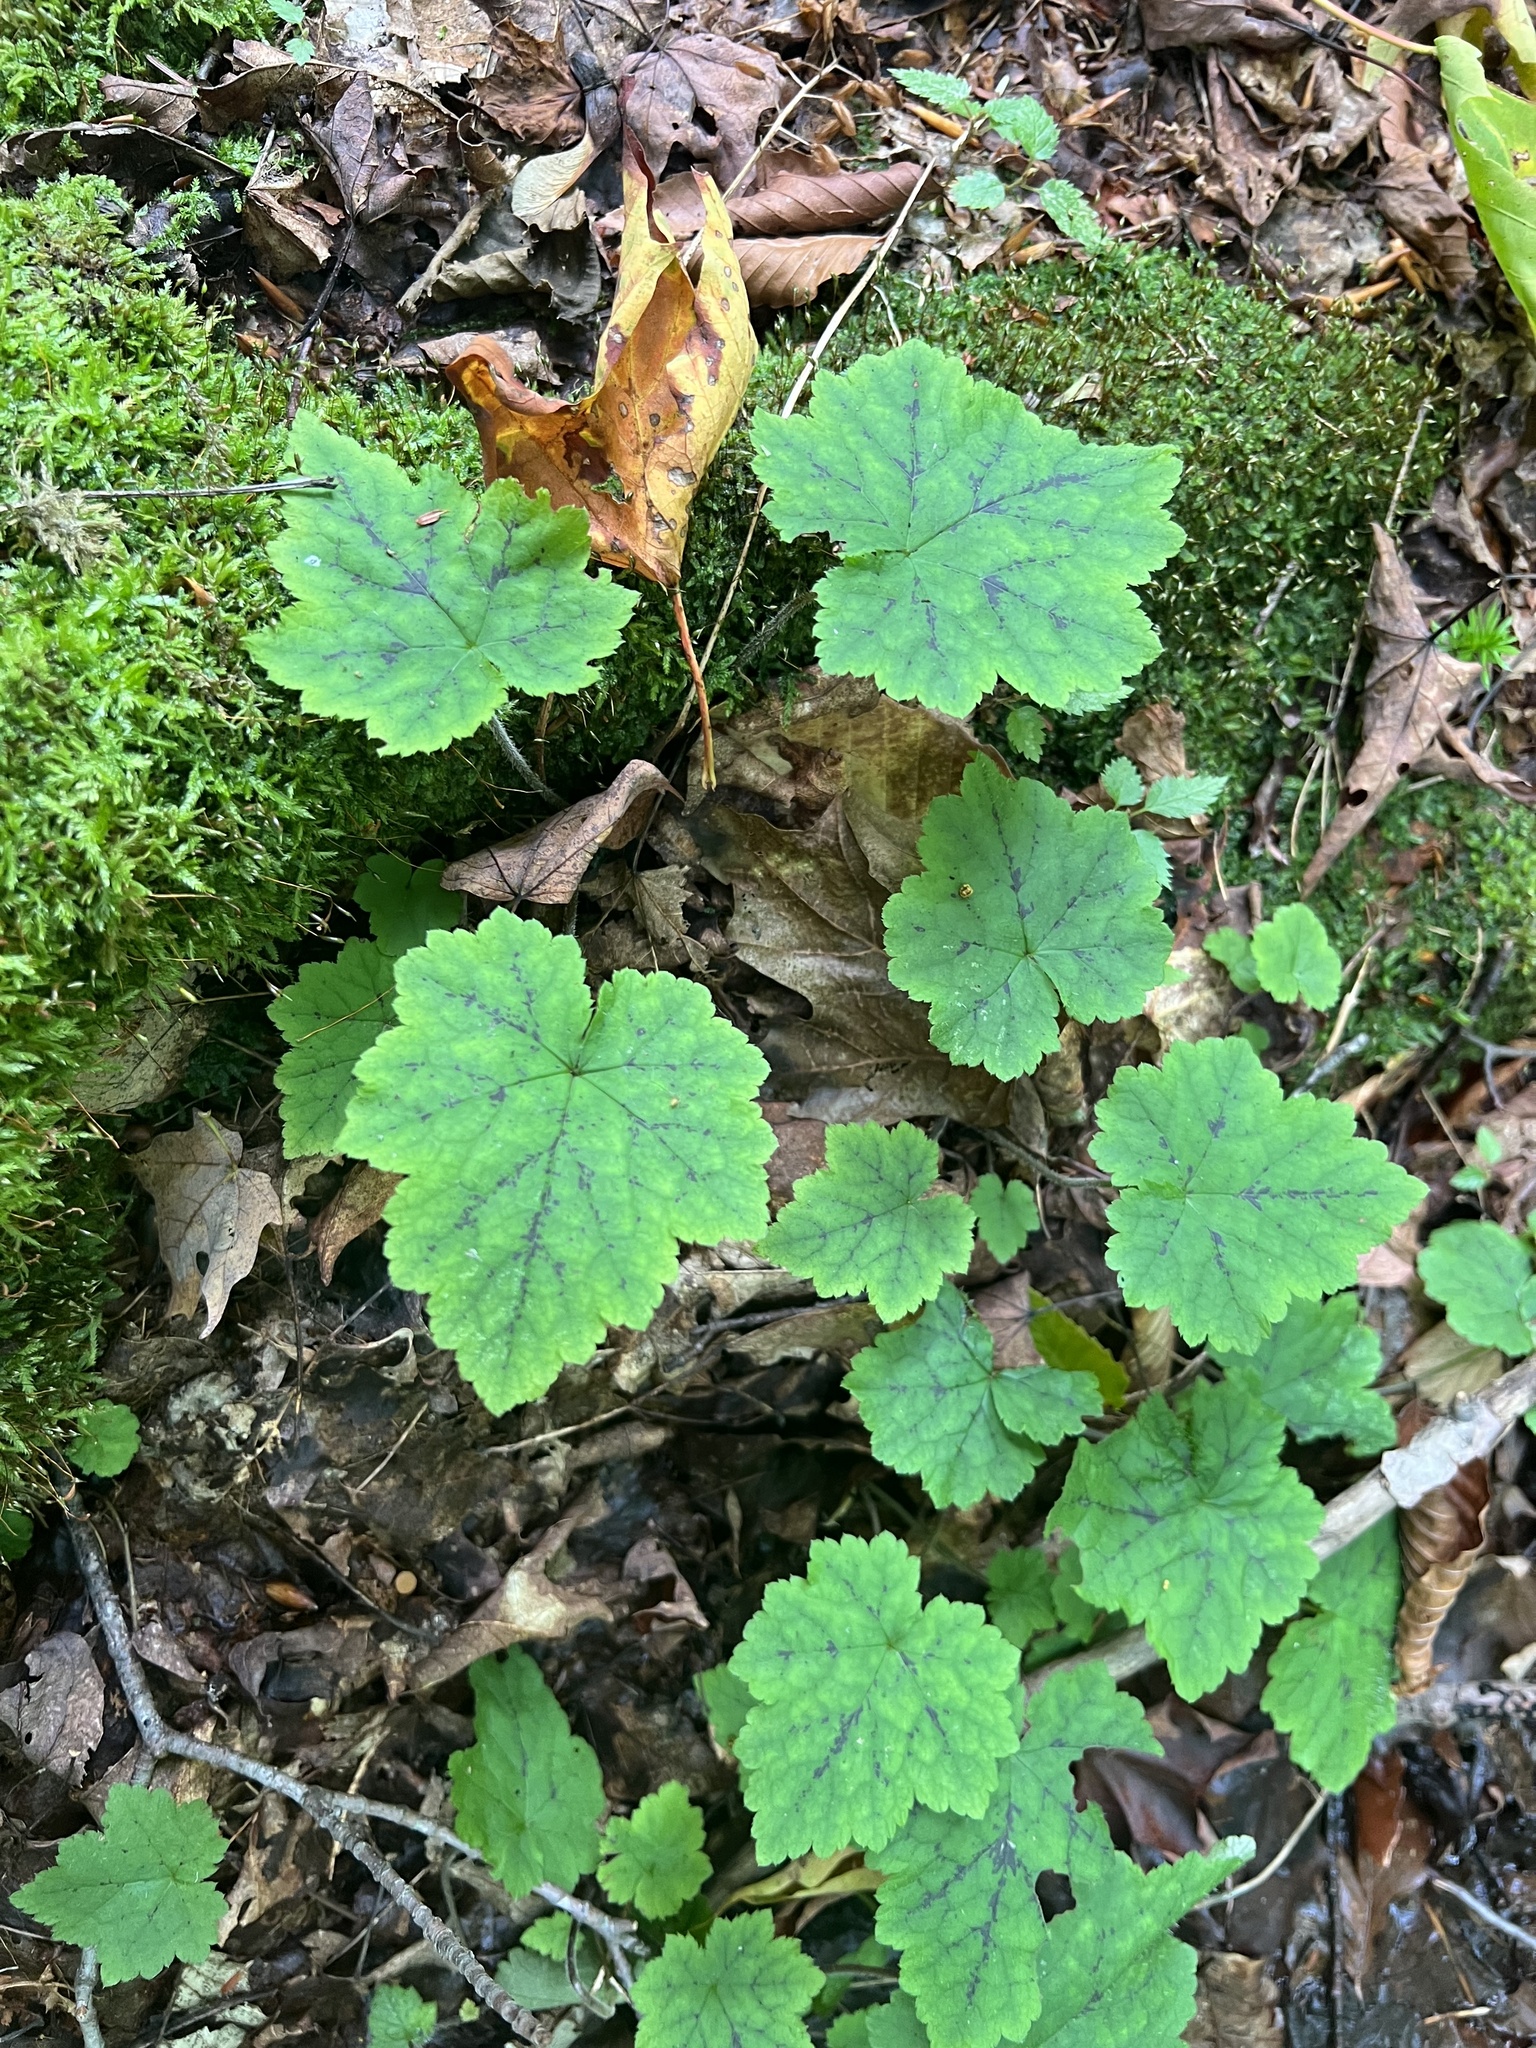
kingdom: Plantae
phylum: Tracheophyta
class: Magnoliopsida
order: Saxifragales
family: Saxifragaceae
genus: Tiarella
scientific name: Tiarella stolonifera
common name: Stoloniferous foamflower
